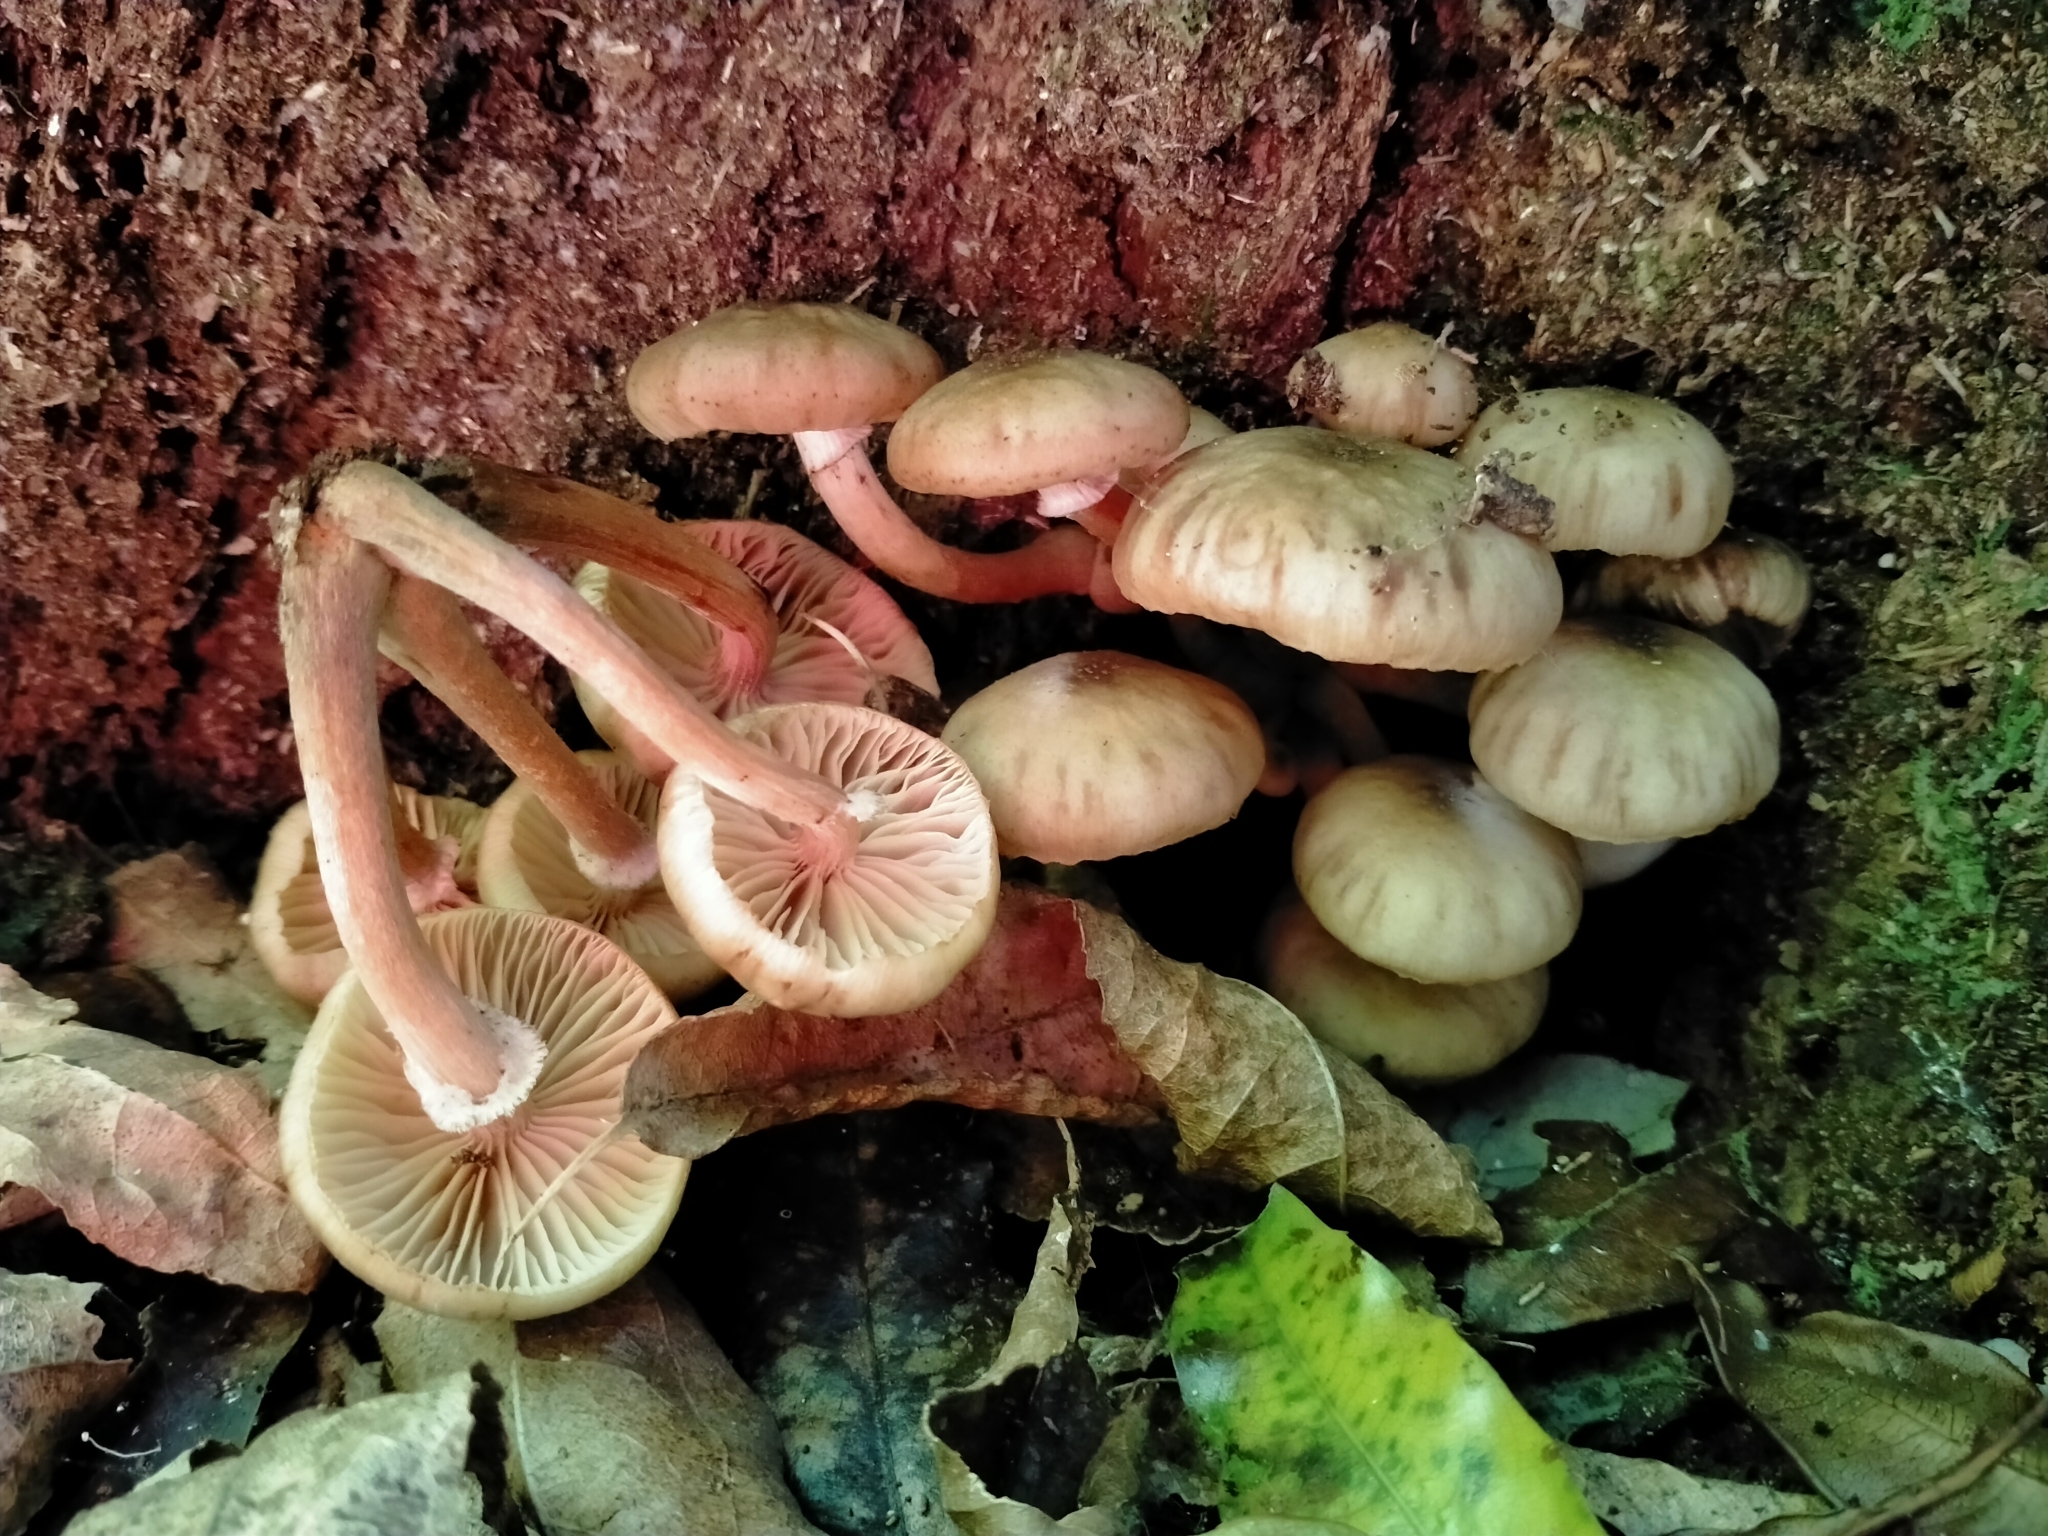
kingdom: Fungi
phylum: Basidiomycota
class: Agaricomycetes
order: Agaricales
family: Physalacriaceae
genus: Armillaria
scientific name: Armillaria novae-zelandiae
